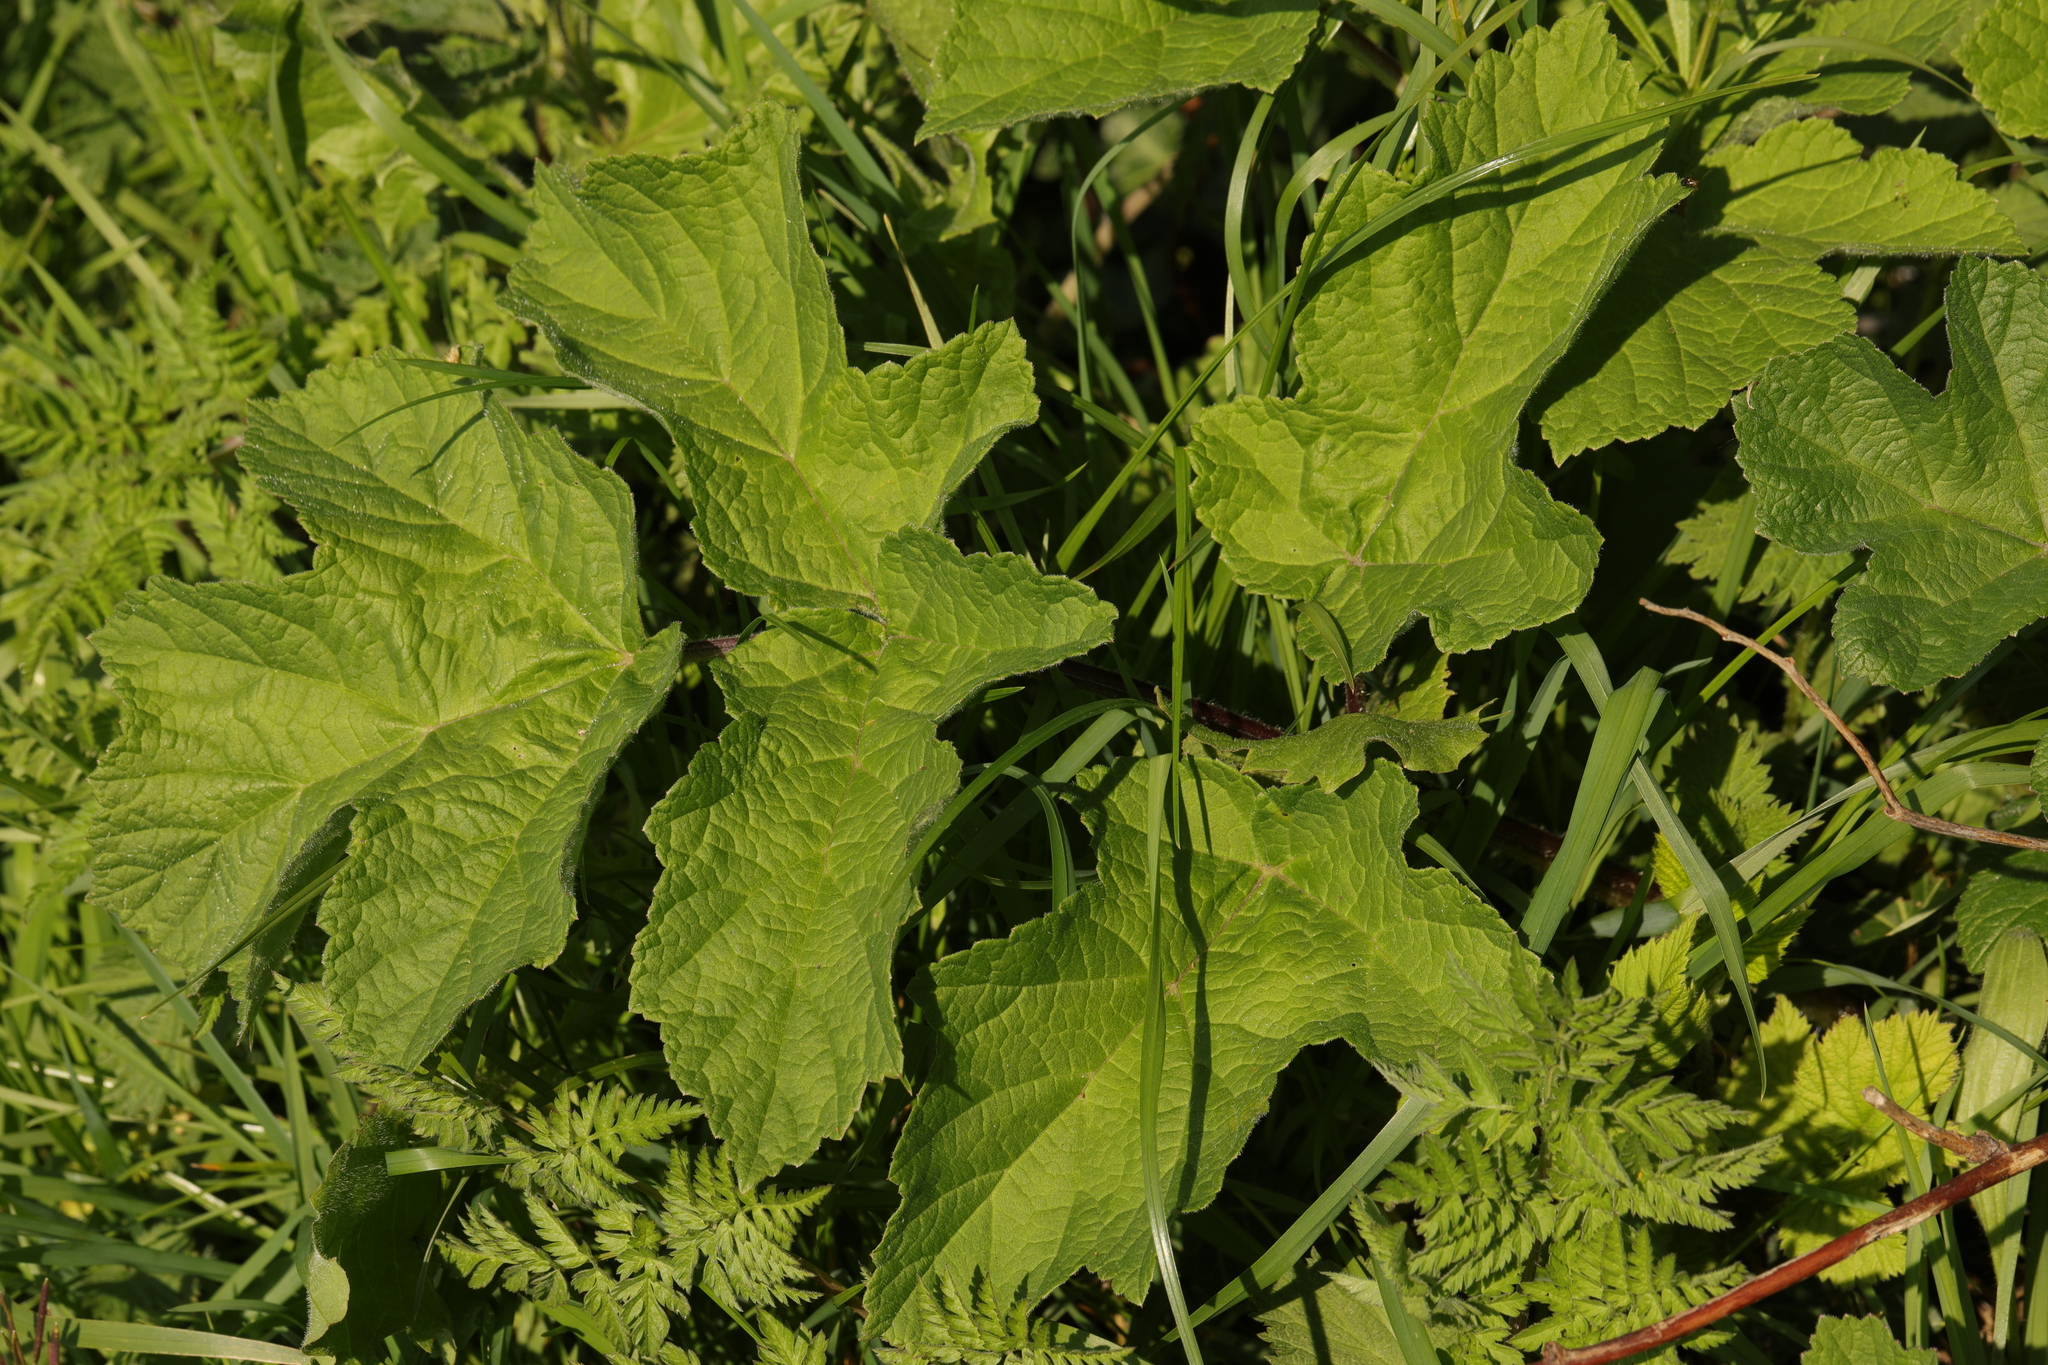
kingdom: Plantae
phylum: Tracheophyta
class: Magnoliopsida
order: Apiales
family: Apiaceae
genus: Heracleum
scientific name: Heracleum sphondylium
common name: Hogweed
